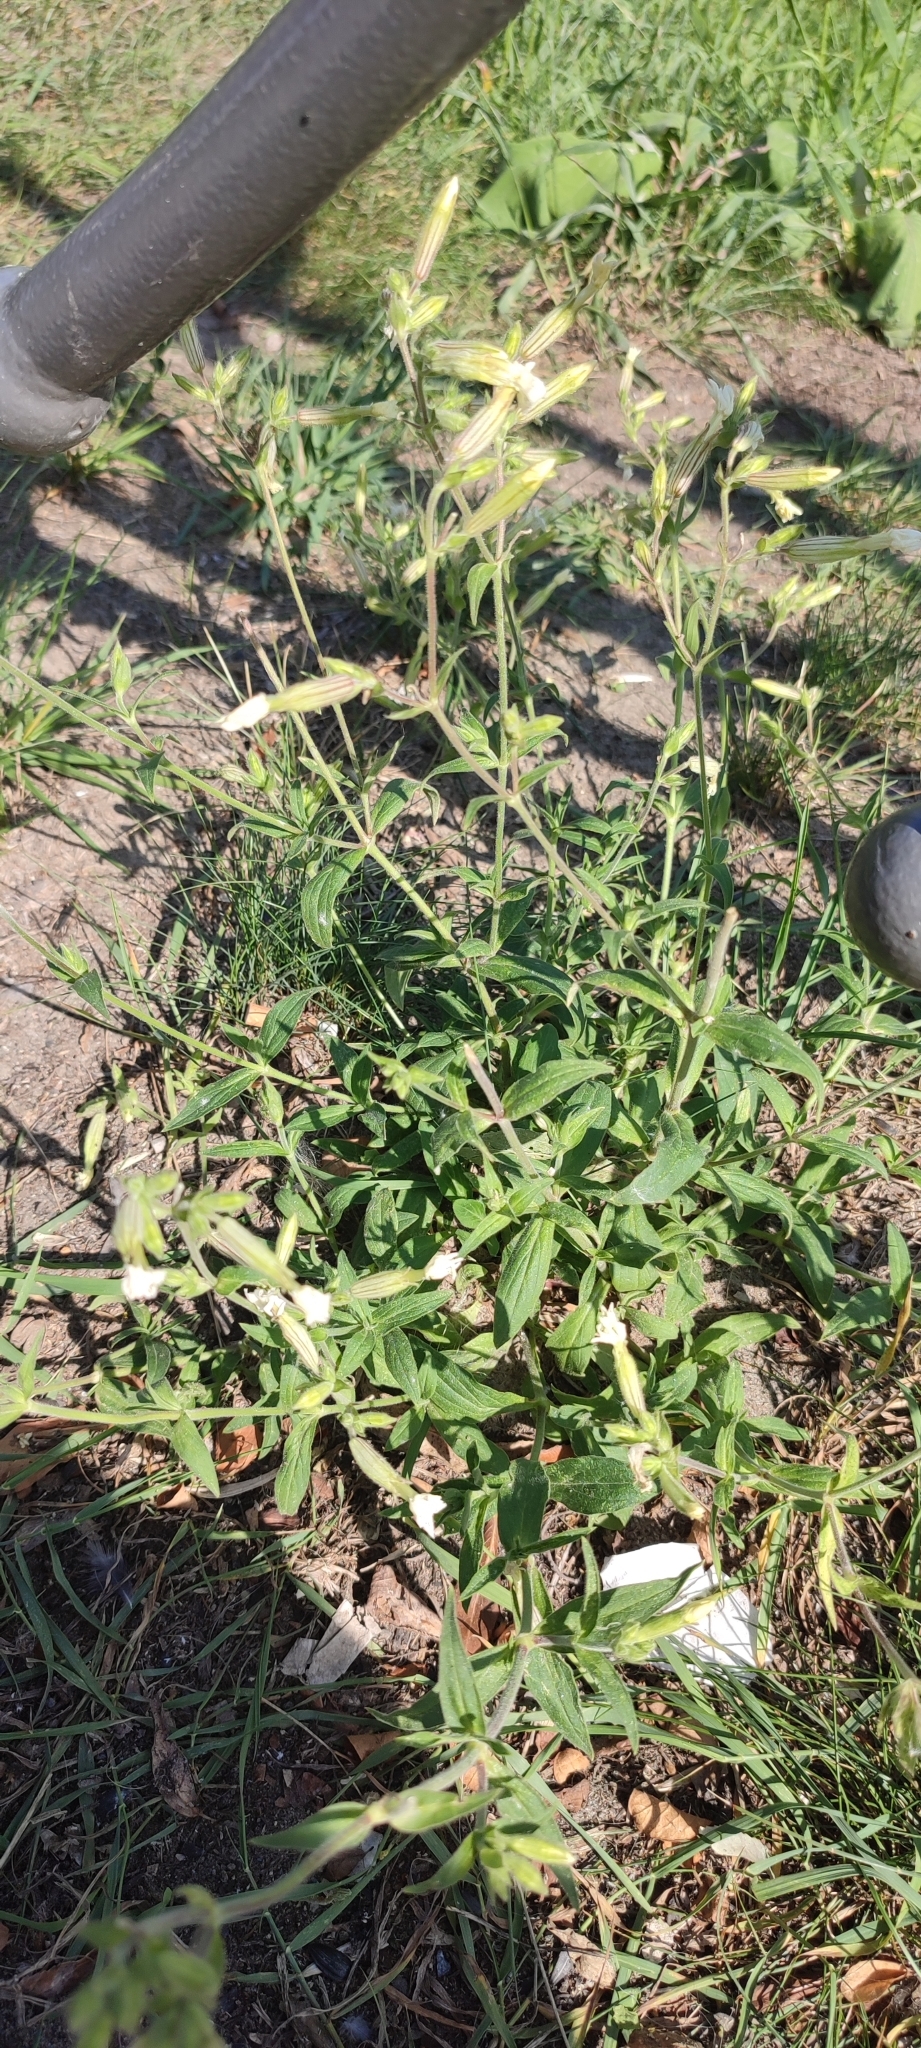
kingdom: Plantae
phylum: Tracheophyta
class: Magnoliopsida
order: Caryophyllales
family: Caryophyllaceae
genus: Silene
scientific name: Silene latifolia
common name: White campion
